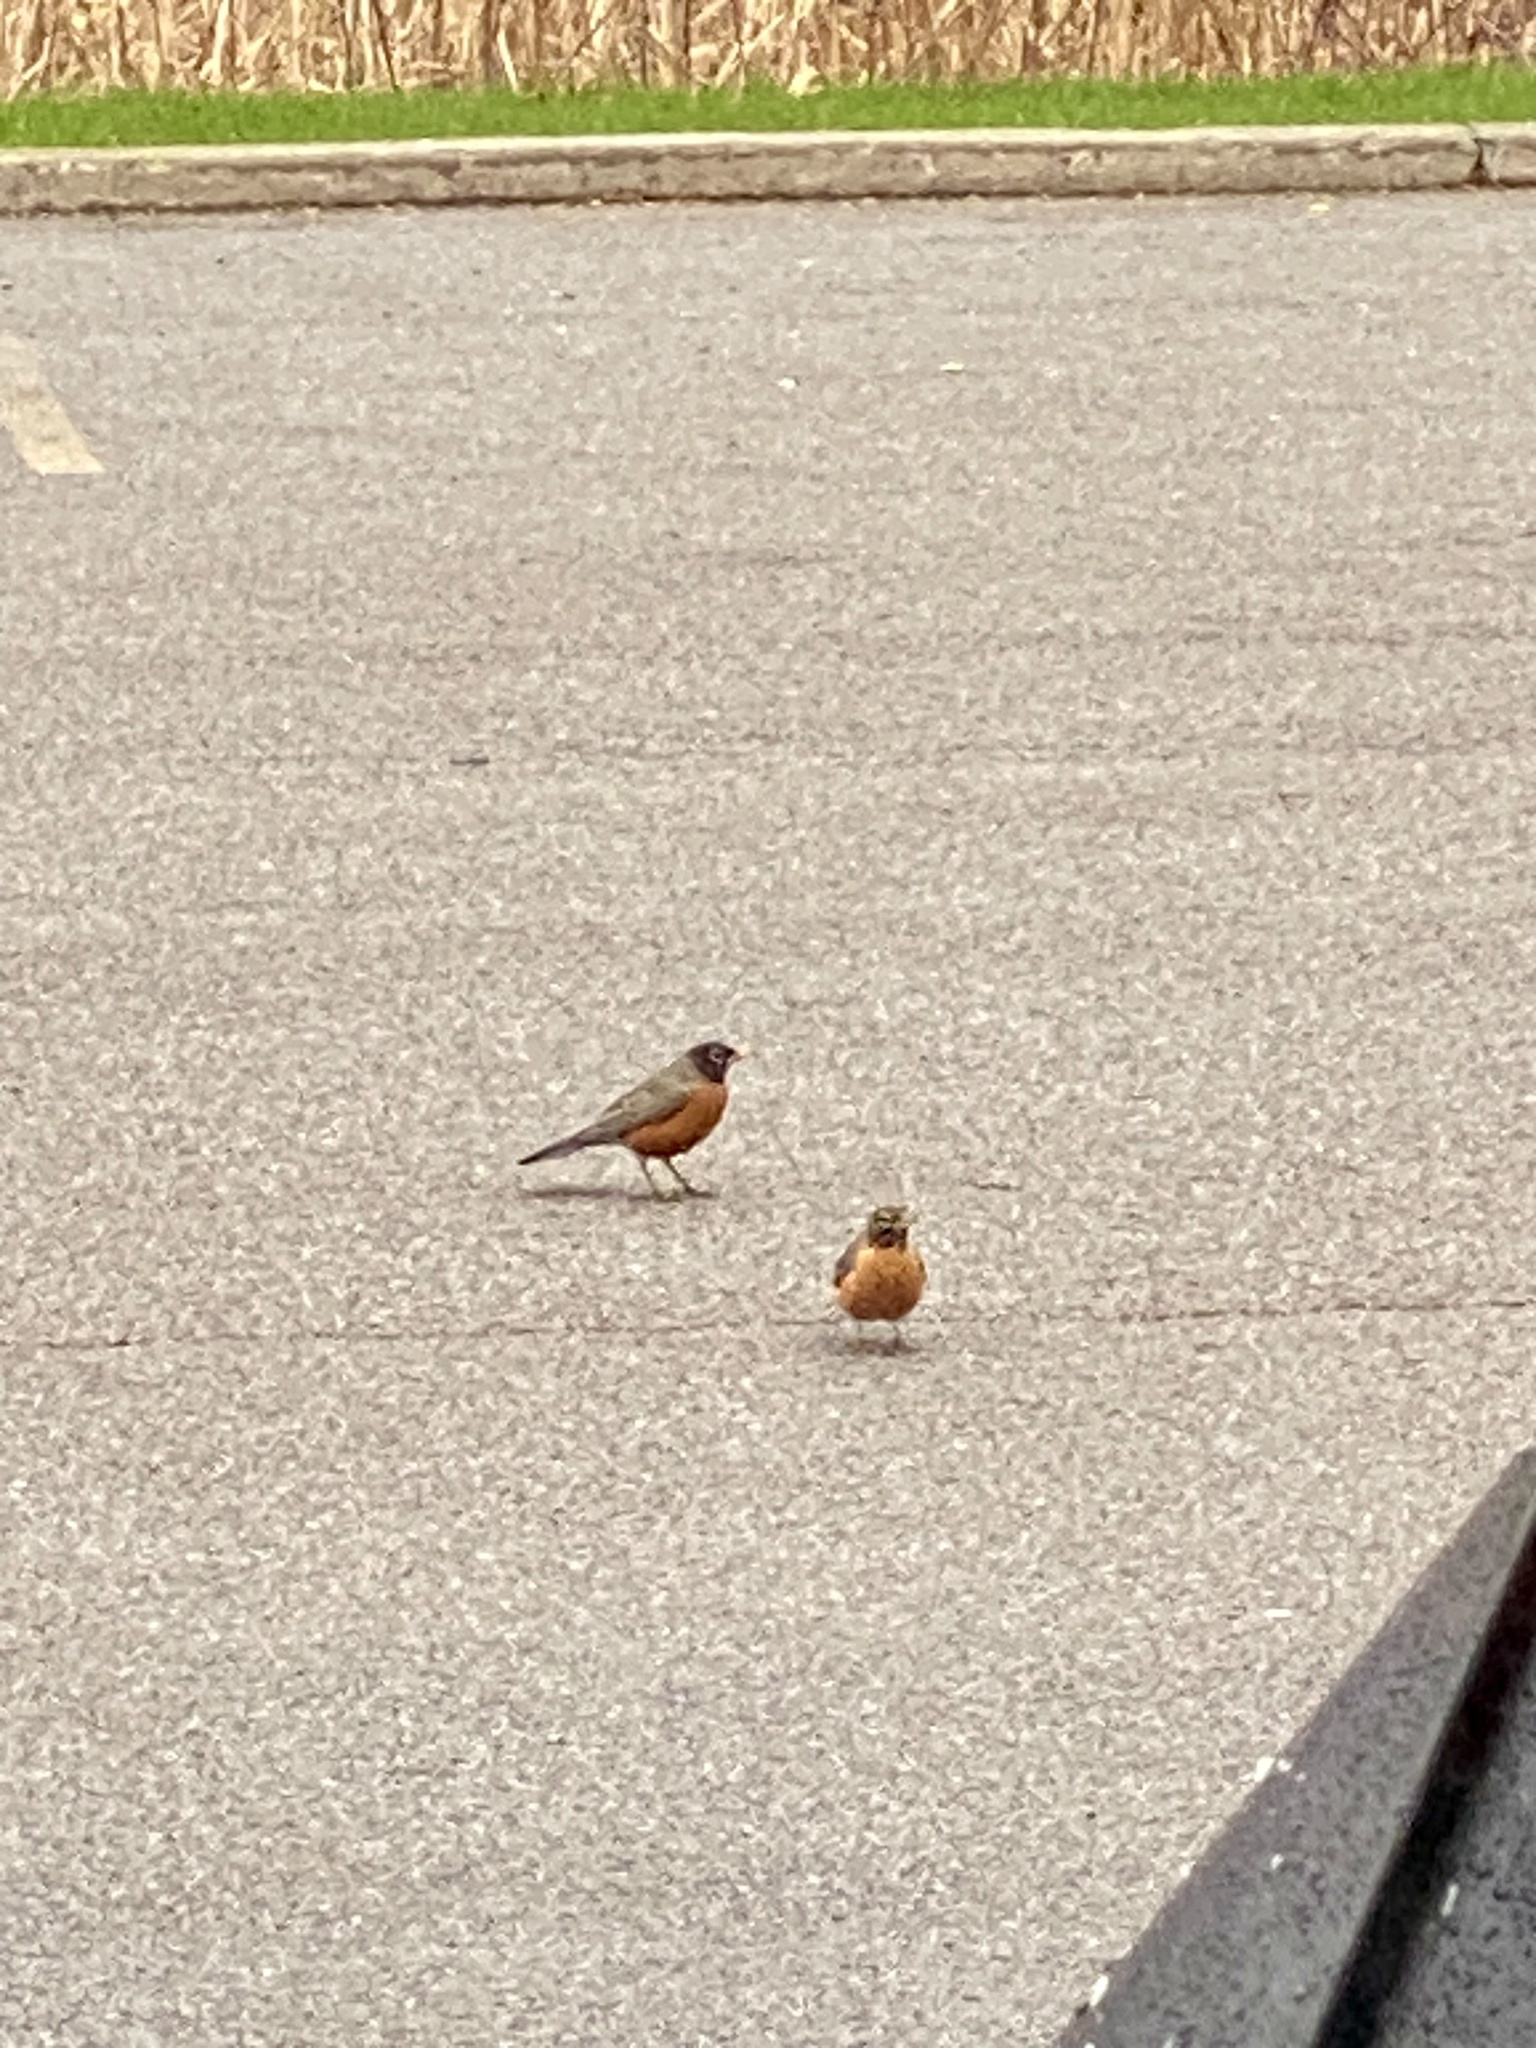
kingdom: Animalia
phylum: Chordata
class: Aves
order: Passeriformes
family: Turdidae
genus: Turdus
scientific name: Turdus migratorius
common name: American robin
